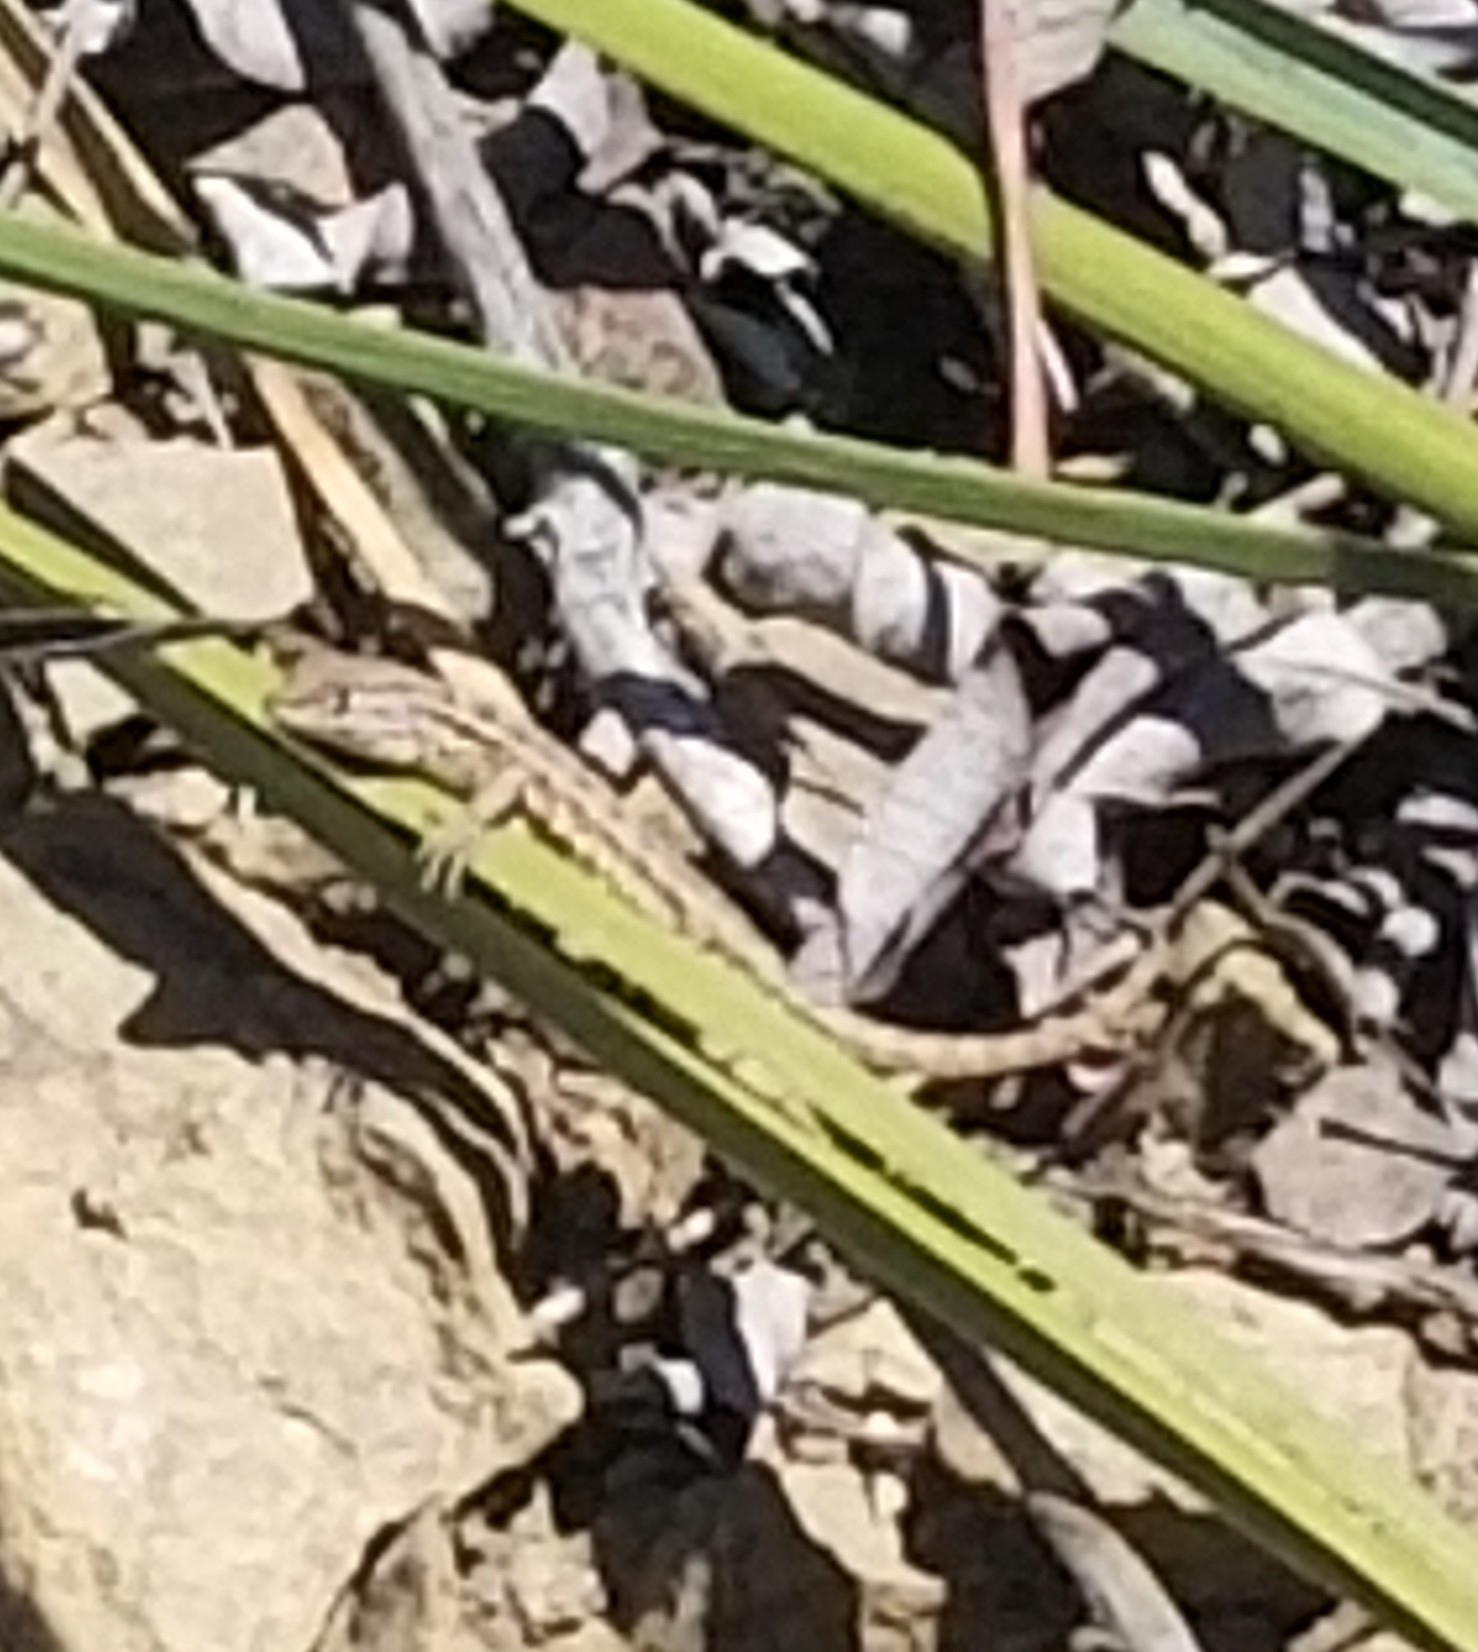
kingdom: Animalia
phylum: Chordata
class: Squamata
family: Phrynosomatidae
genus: Uta
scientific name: Uta stansburiana
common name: Side-blotched lizard
